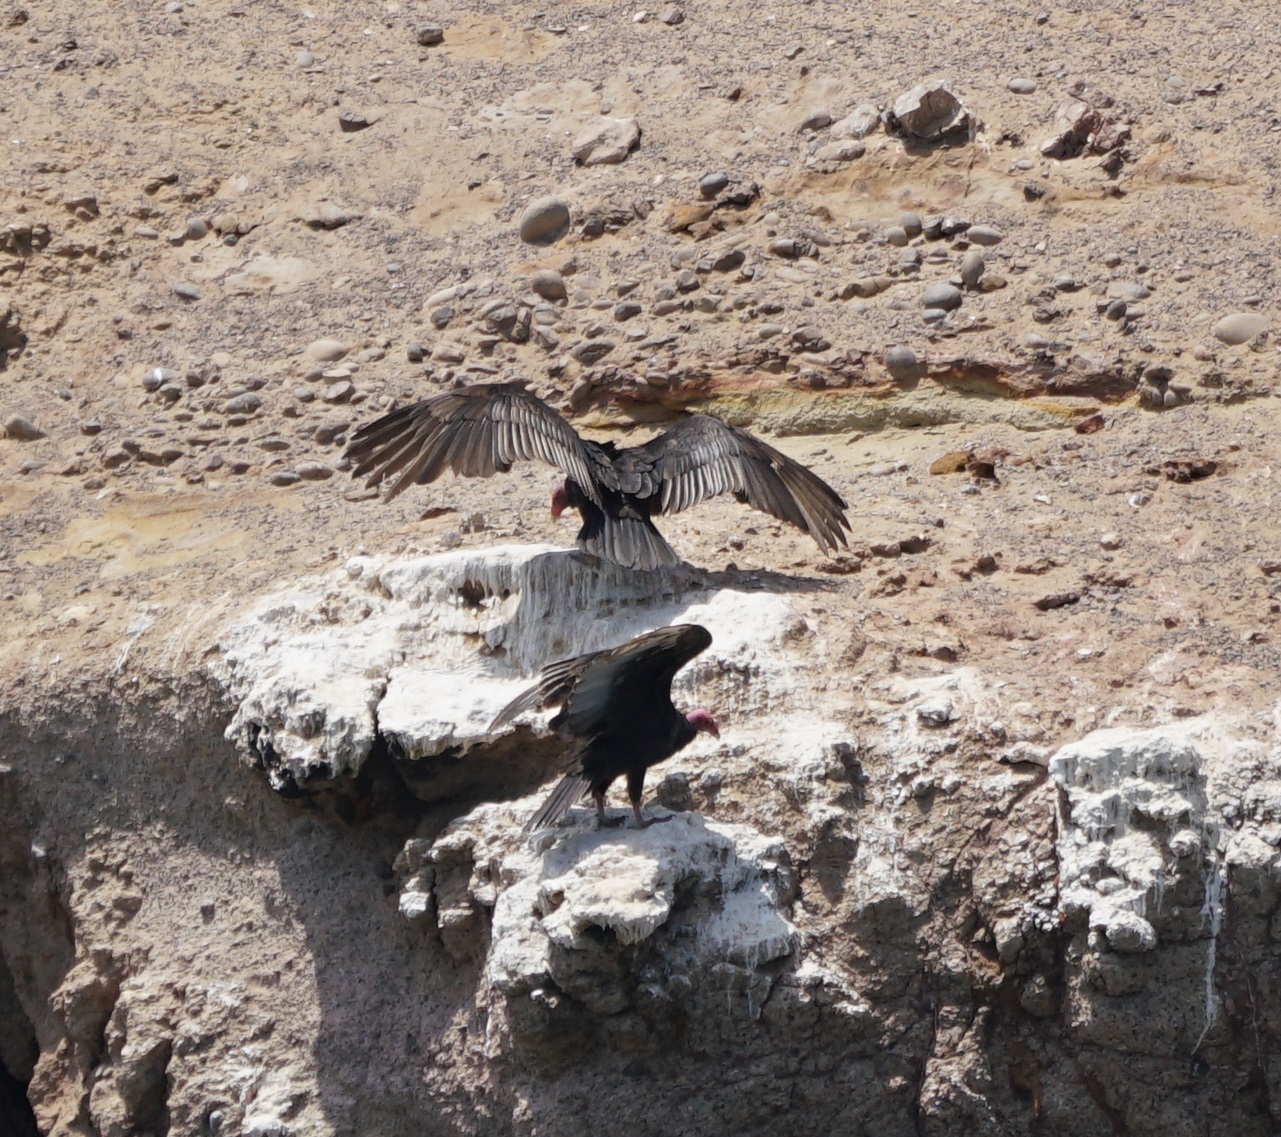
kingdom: Animalia
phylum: Chordata
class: Aves
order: Accipitriformes
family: Cathartidae
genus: Cathartes
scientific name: Cathartes aura
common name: Turkey vulture
